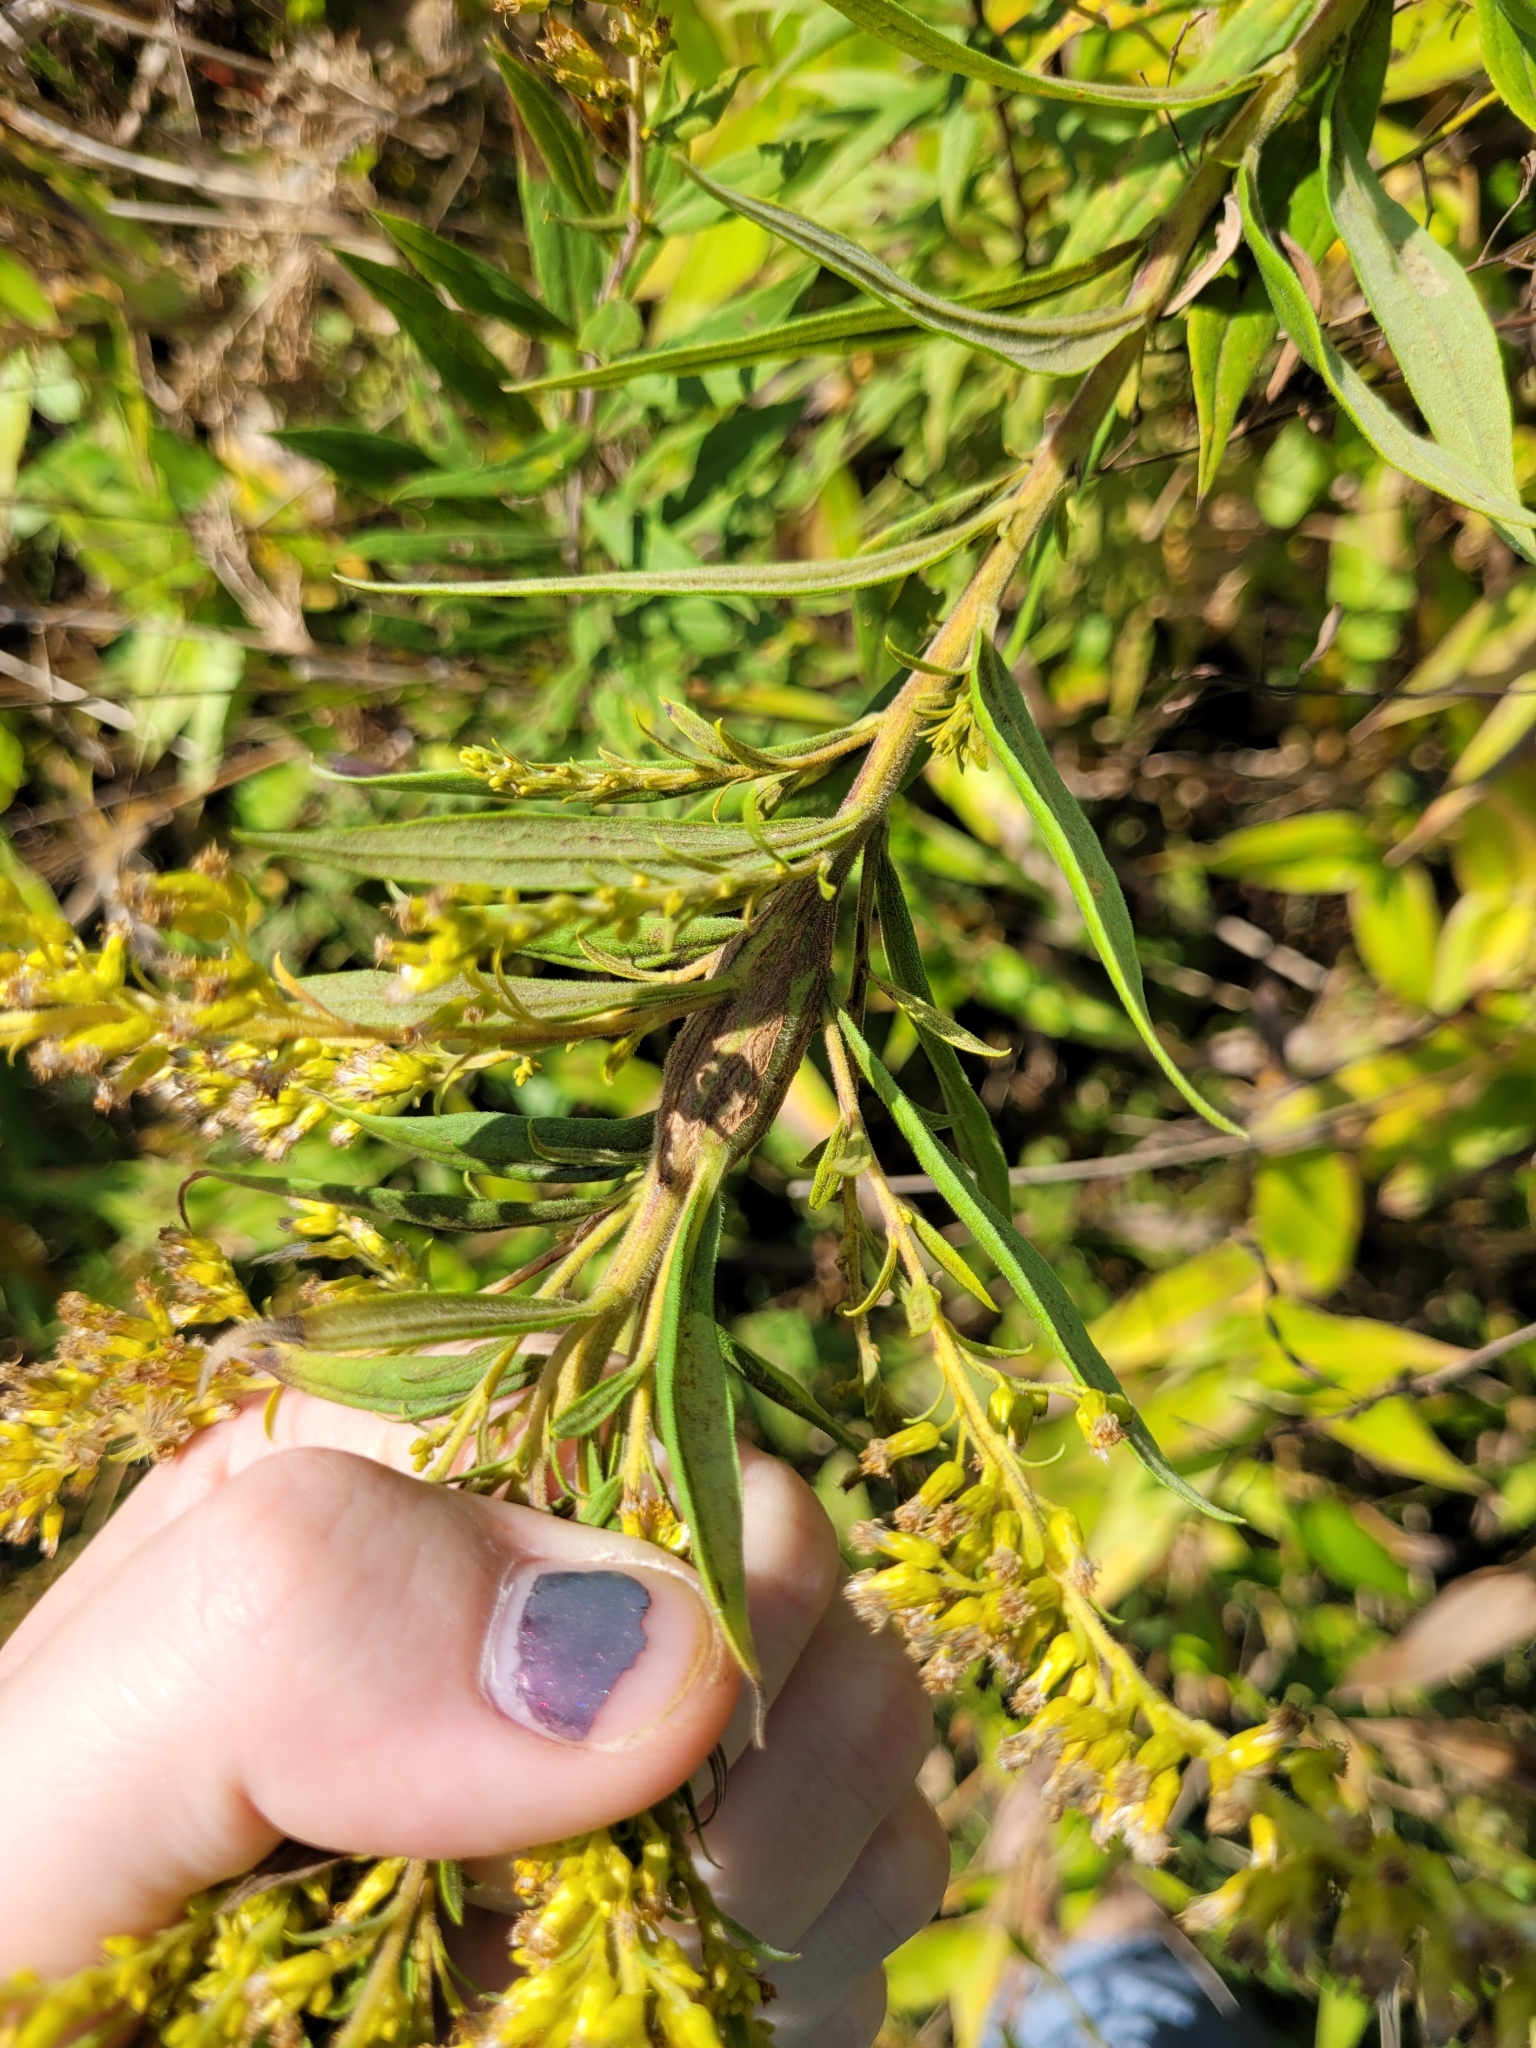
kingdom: Animalia
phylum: Arthropoda
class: Insecta
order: Lepidoptera
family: Tortricidae
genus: Epiblema
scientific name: Epiblema scudderiana
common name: Goldenrod gall moth
